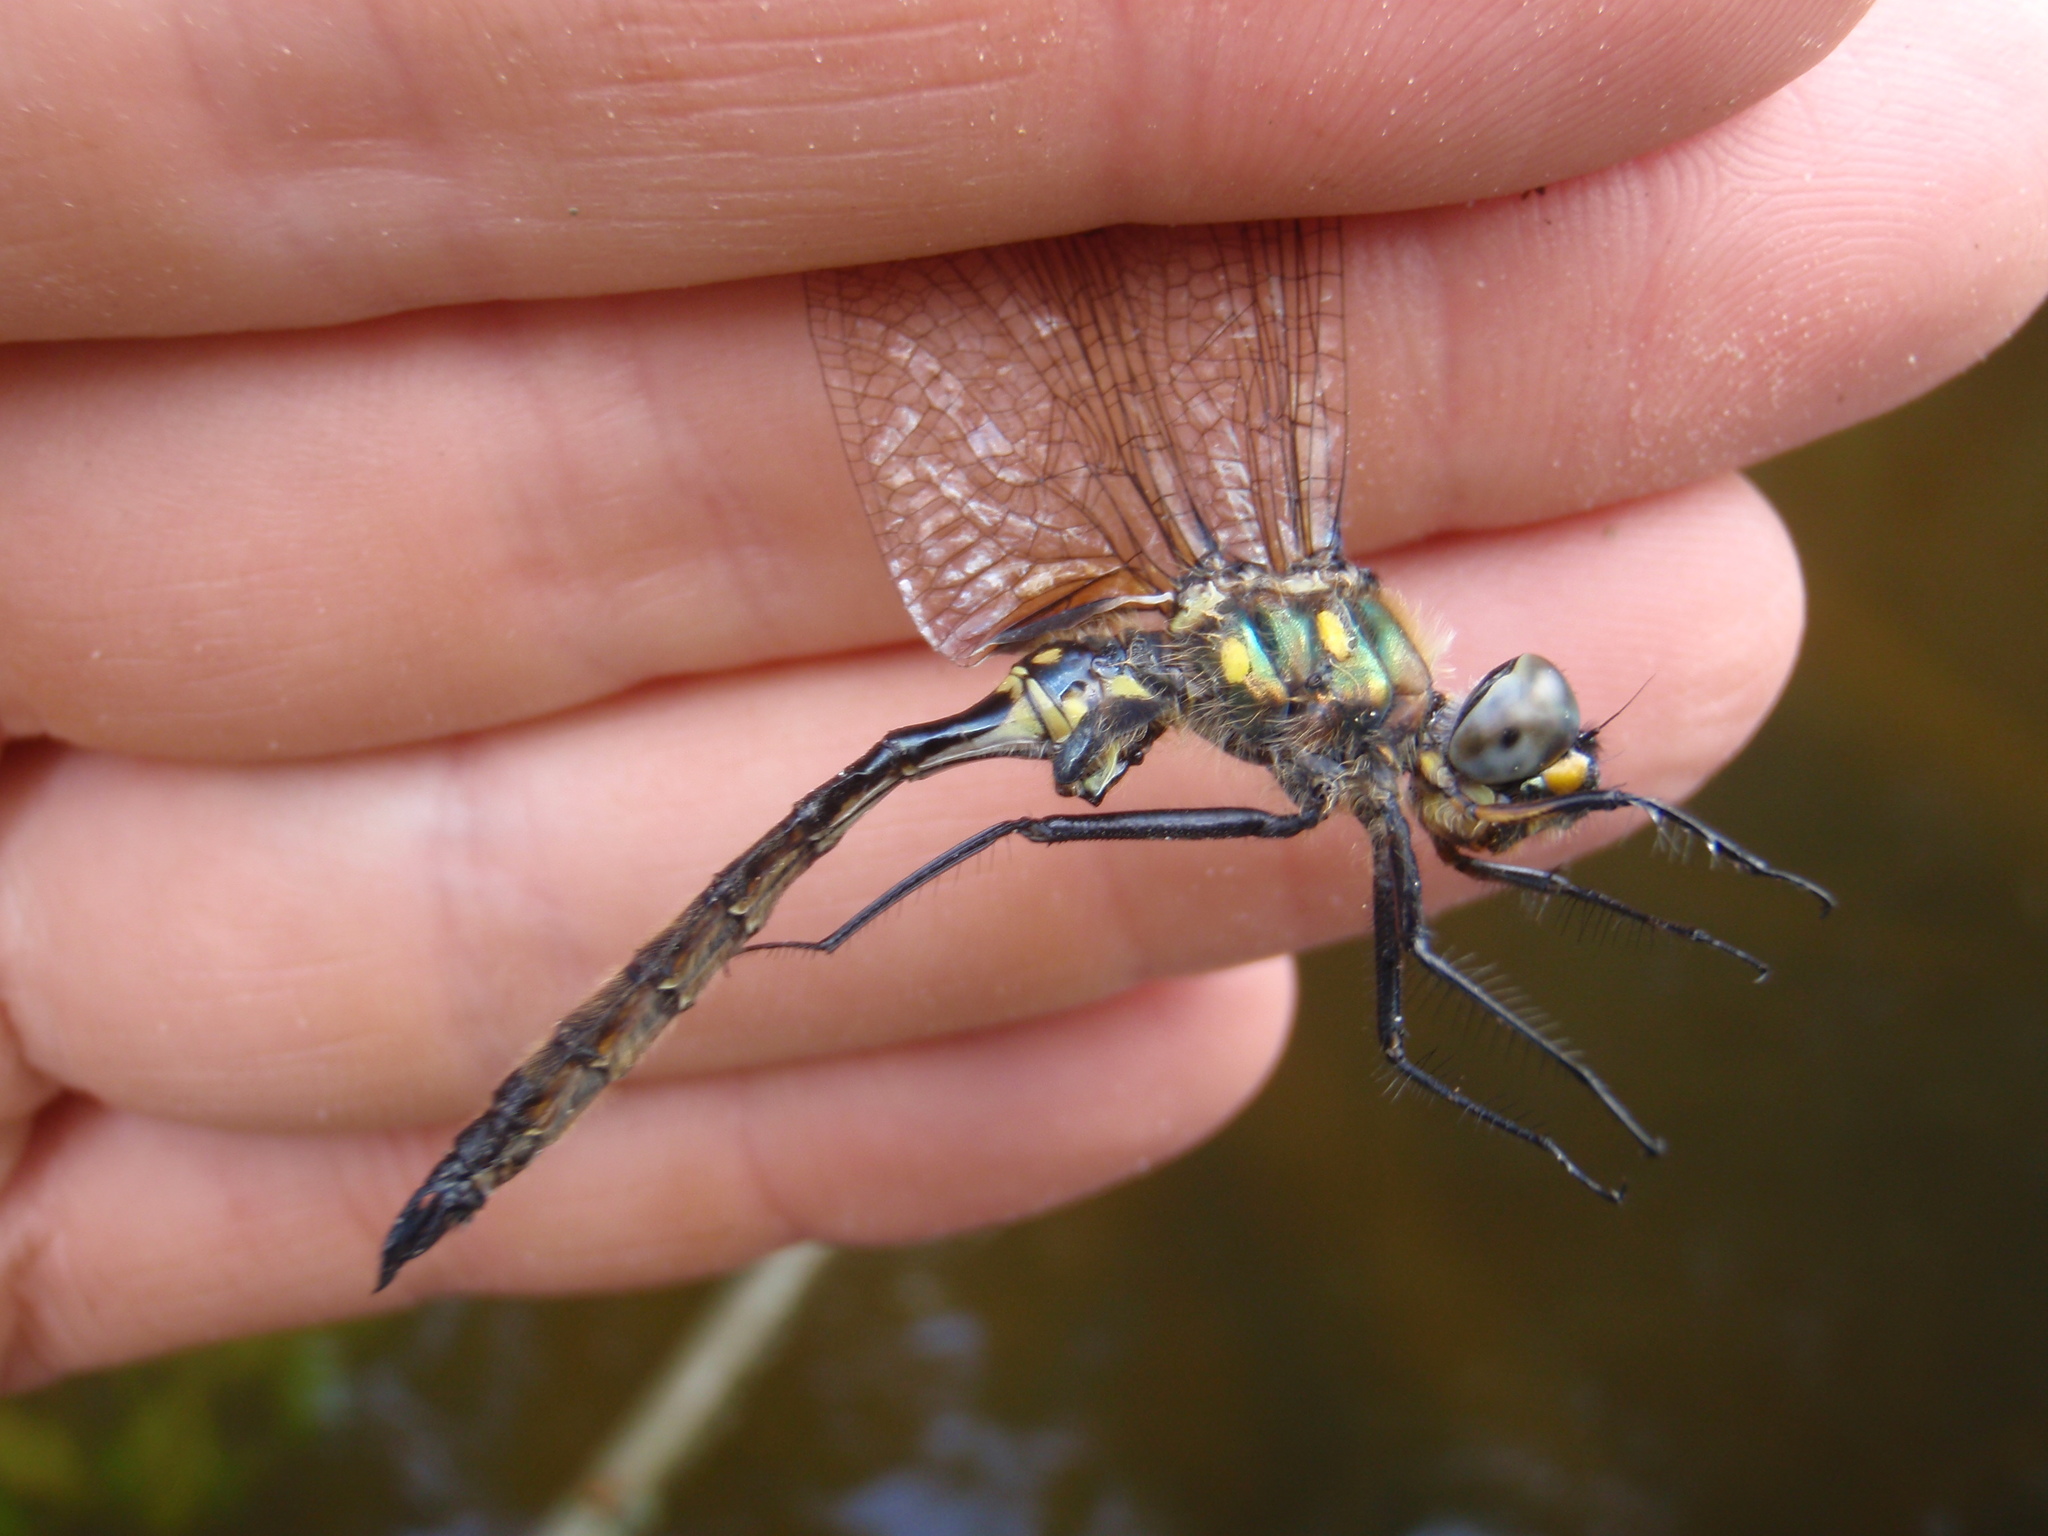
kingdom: Animalia
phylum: Arthropoda
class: Insecta
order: Odonata
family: Corduliidae
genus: Somatochlora
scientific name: Somatochlora minor
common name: Ocellated emerald
